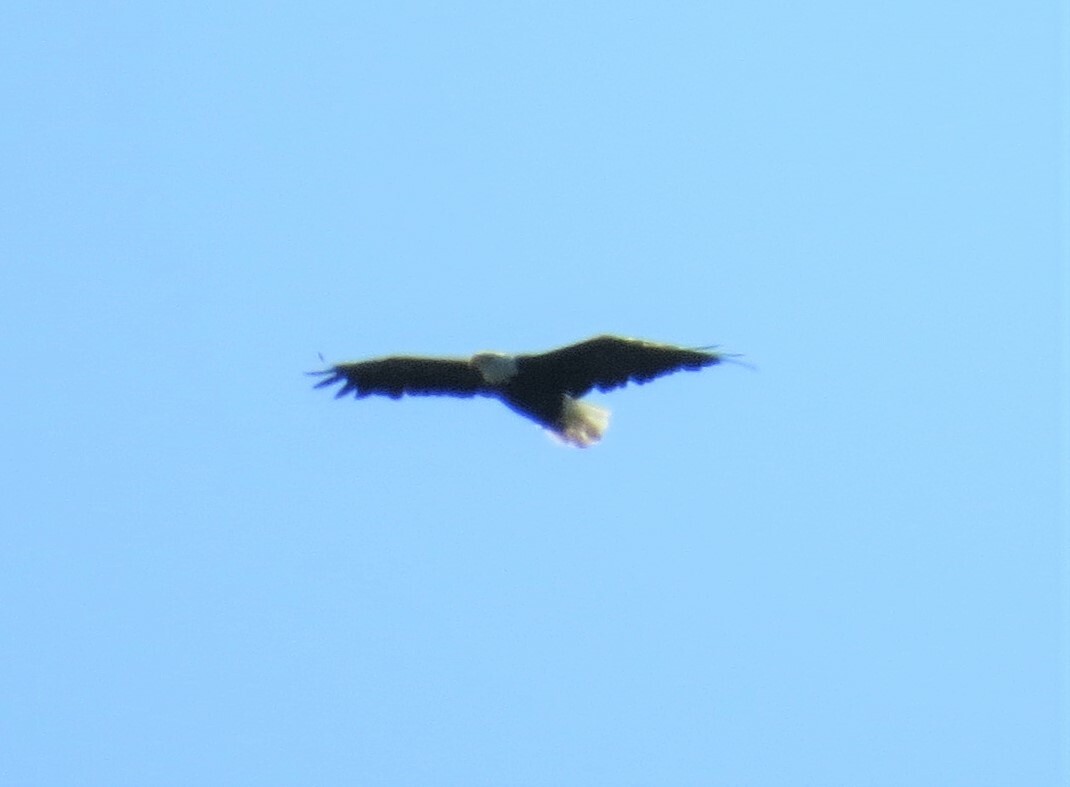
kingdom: Animalia
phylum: Chordata
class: Aves
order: Accipitriformes
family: Accipitridae
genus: Haliaeetus
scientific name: Haliaeetus leucocephalus
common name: Bald eagle
